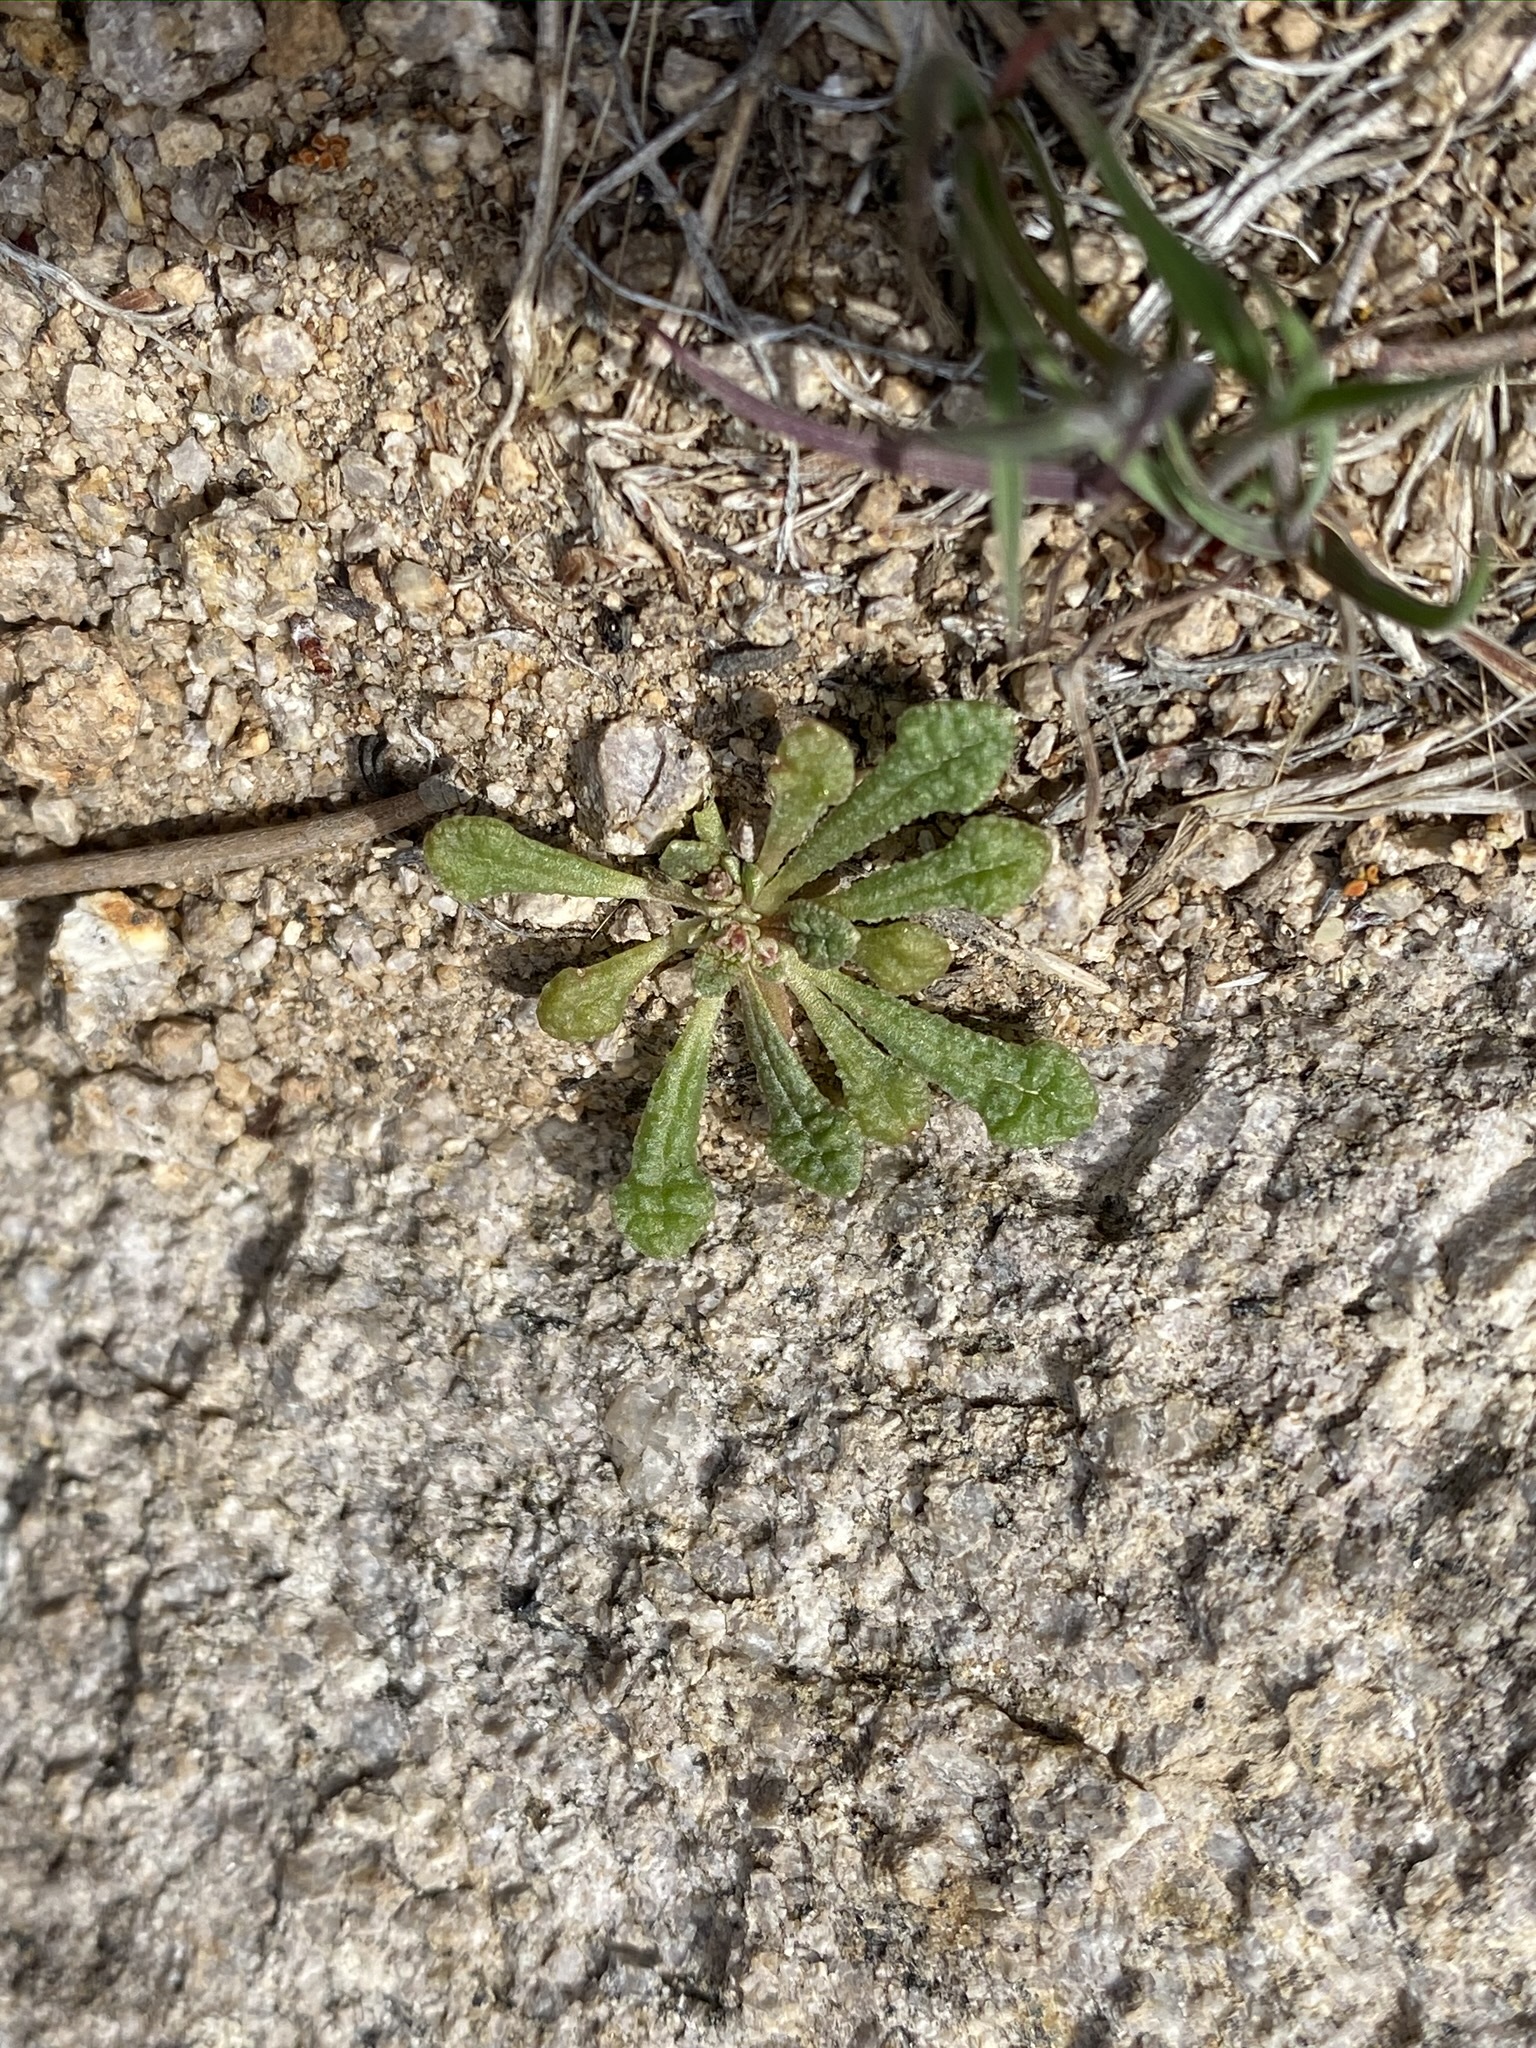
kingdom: Plantae
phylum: Tracheophyta
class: Magnoliopsida
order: Caryophyllales
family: Montiaceae
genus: Calyptridium
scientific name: Calyptridium monandrum
